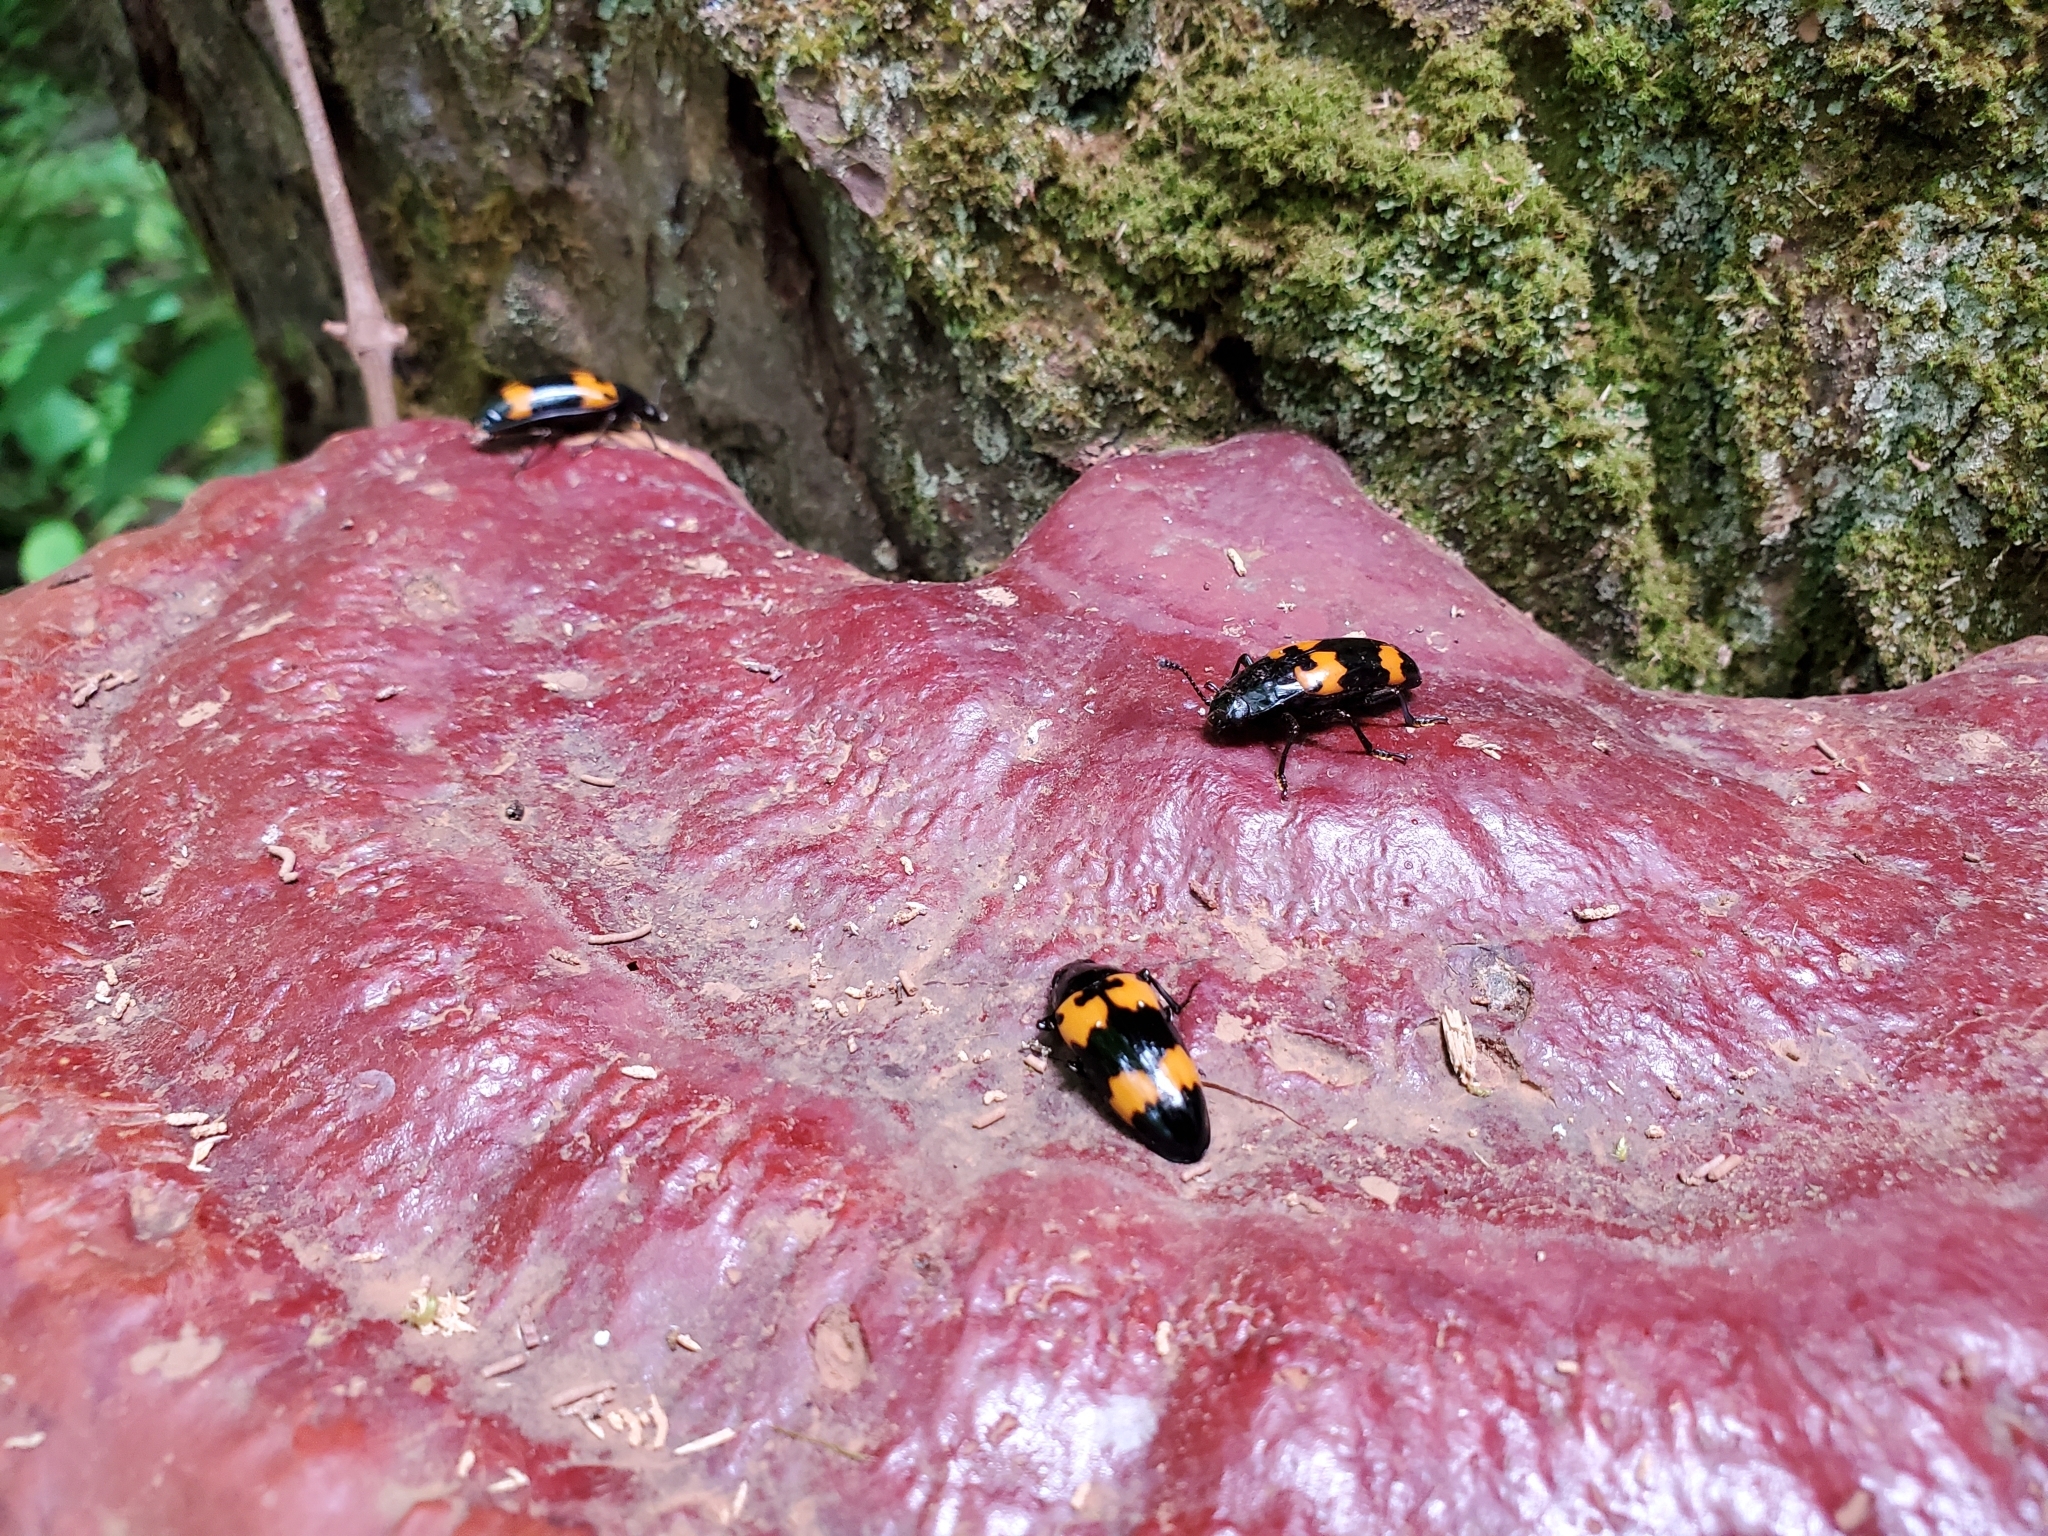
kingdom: Animalia
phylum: Arthropoda
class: Insecta
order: Coleoptera
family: Erotylidae
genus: Megalodacne
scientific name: Megalodacne heros
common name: Pleasing fungus beetle
